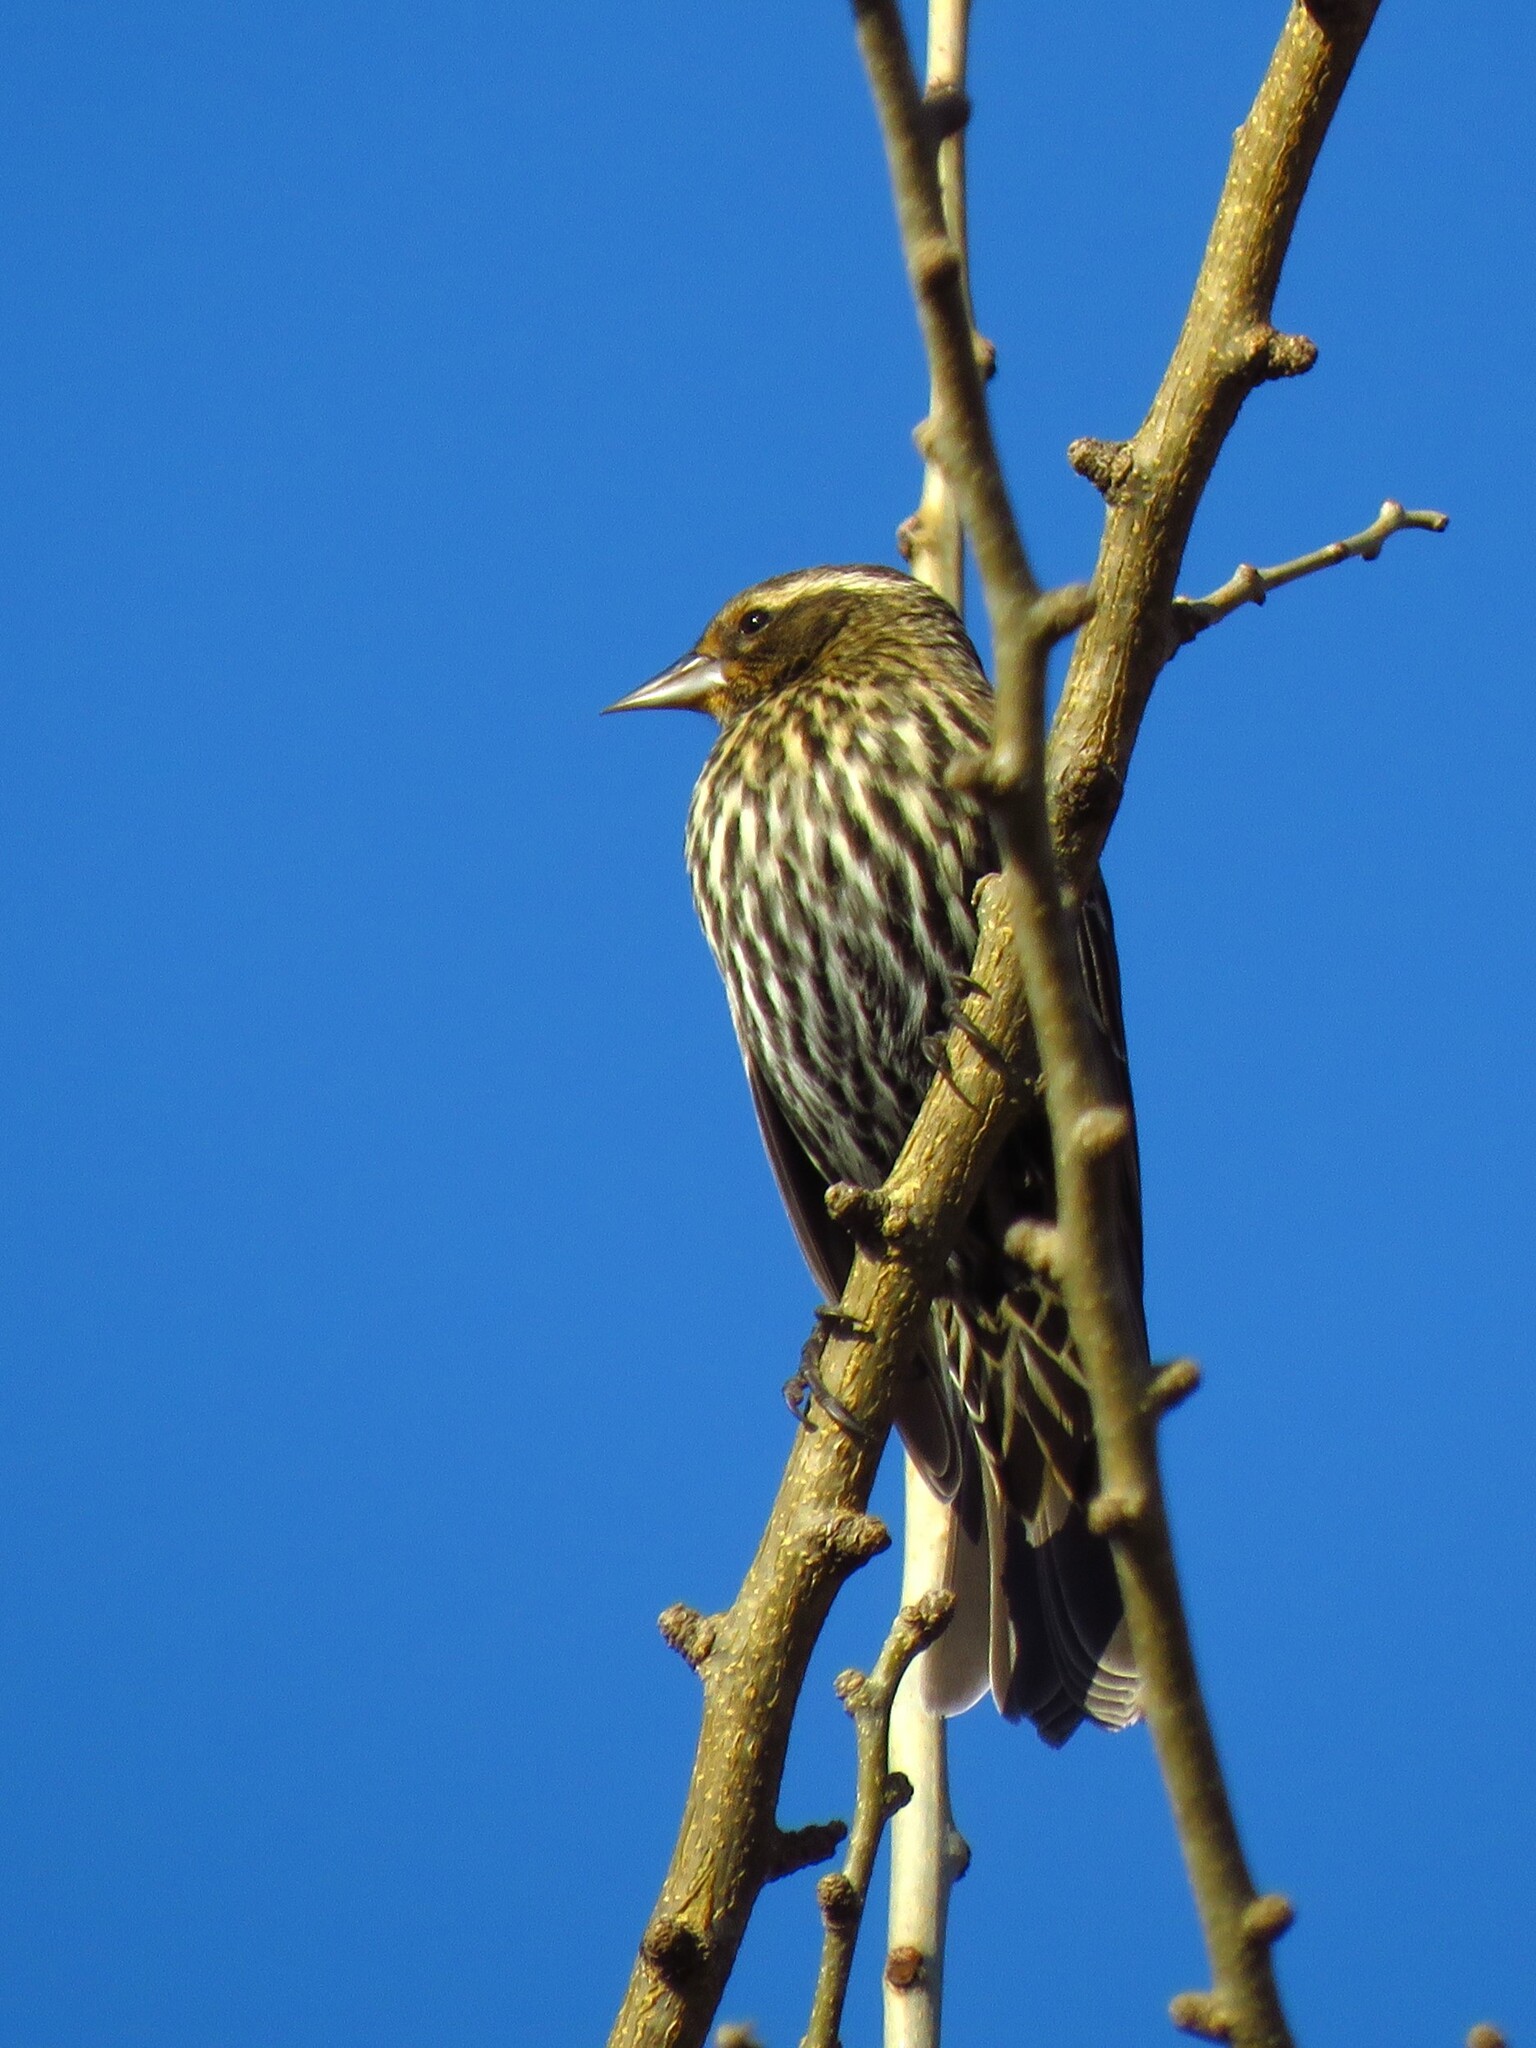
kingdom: Animalia
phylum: Chordata
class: Aves
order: Passeriformes
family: Icteridae
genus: Agelaius
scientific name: Agelaius phoeniceus
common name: Red-winged blackbird
